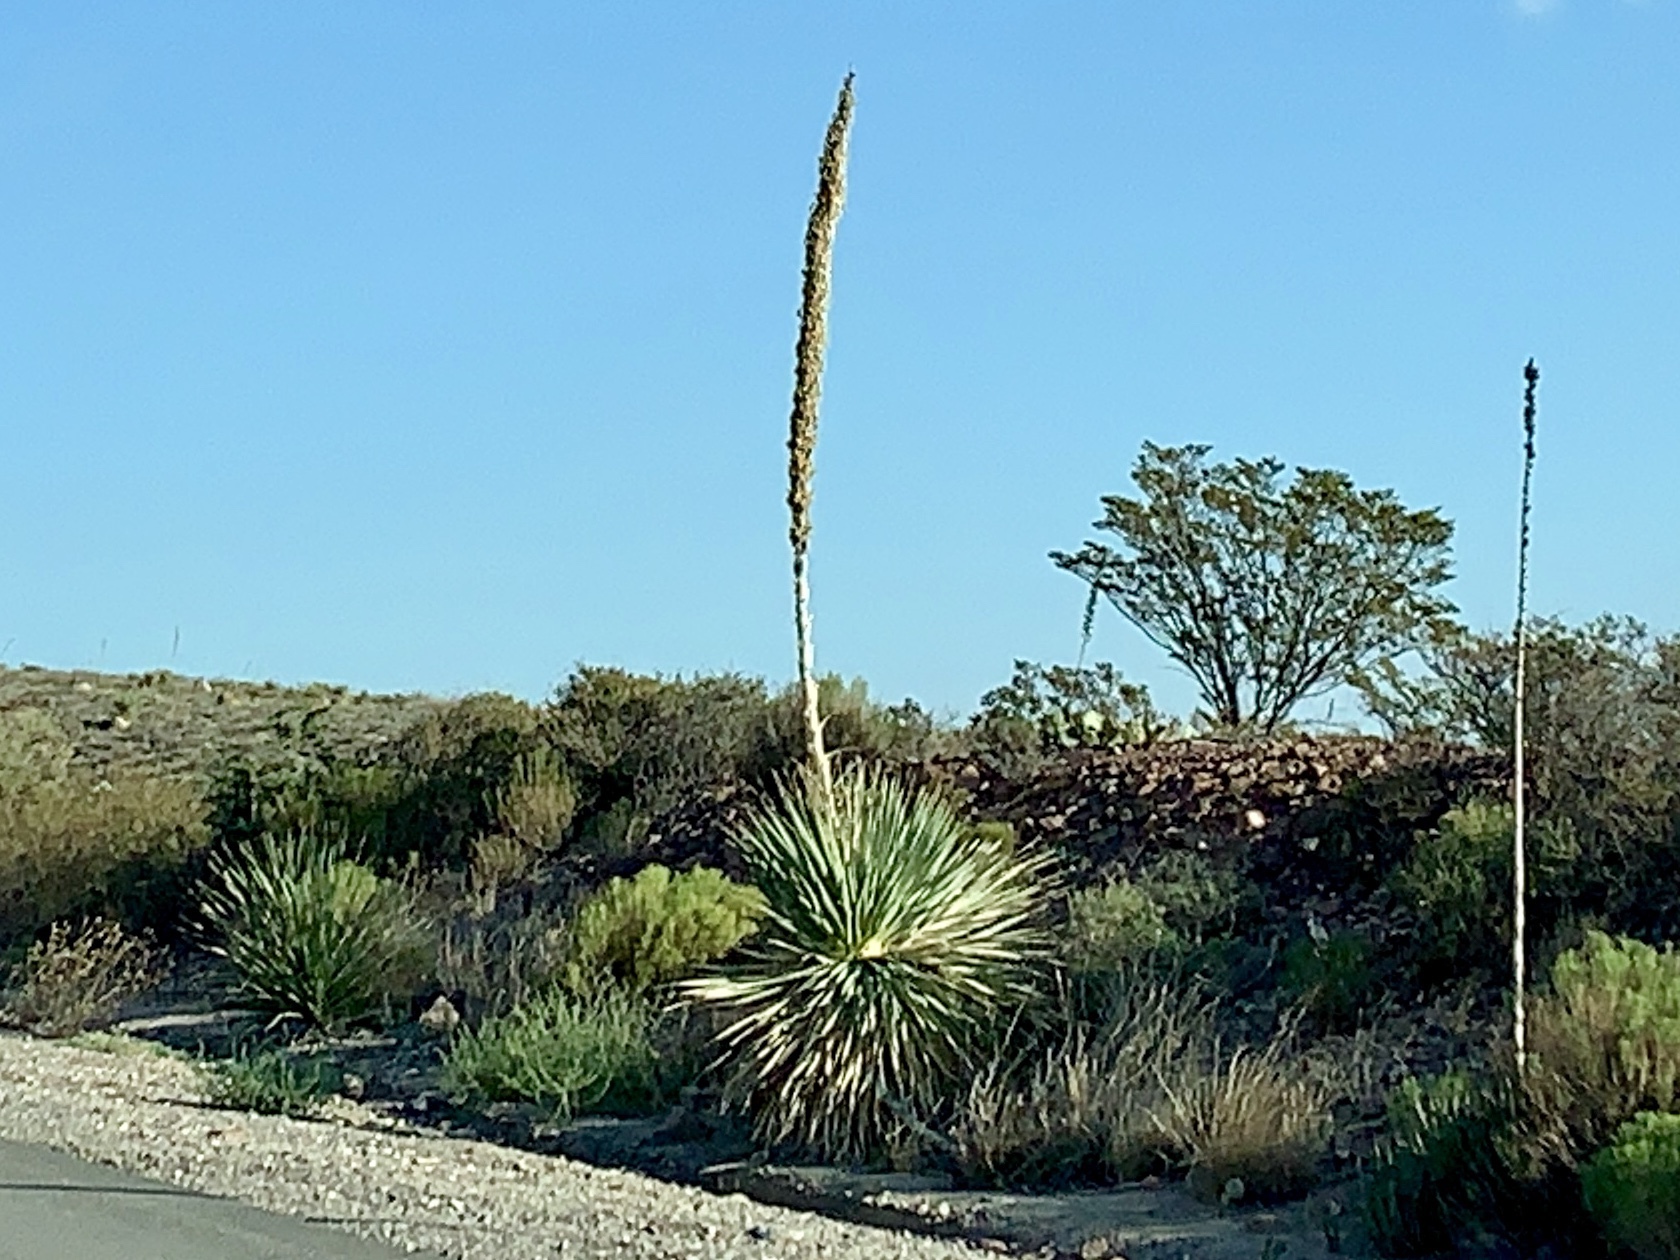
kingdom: Plantae
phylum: Tracheophyta
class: Liliopsida
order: Asparagales
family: Asparagaceae
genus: Dasylirion
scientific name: Dasylirion wheeleri
